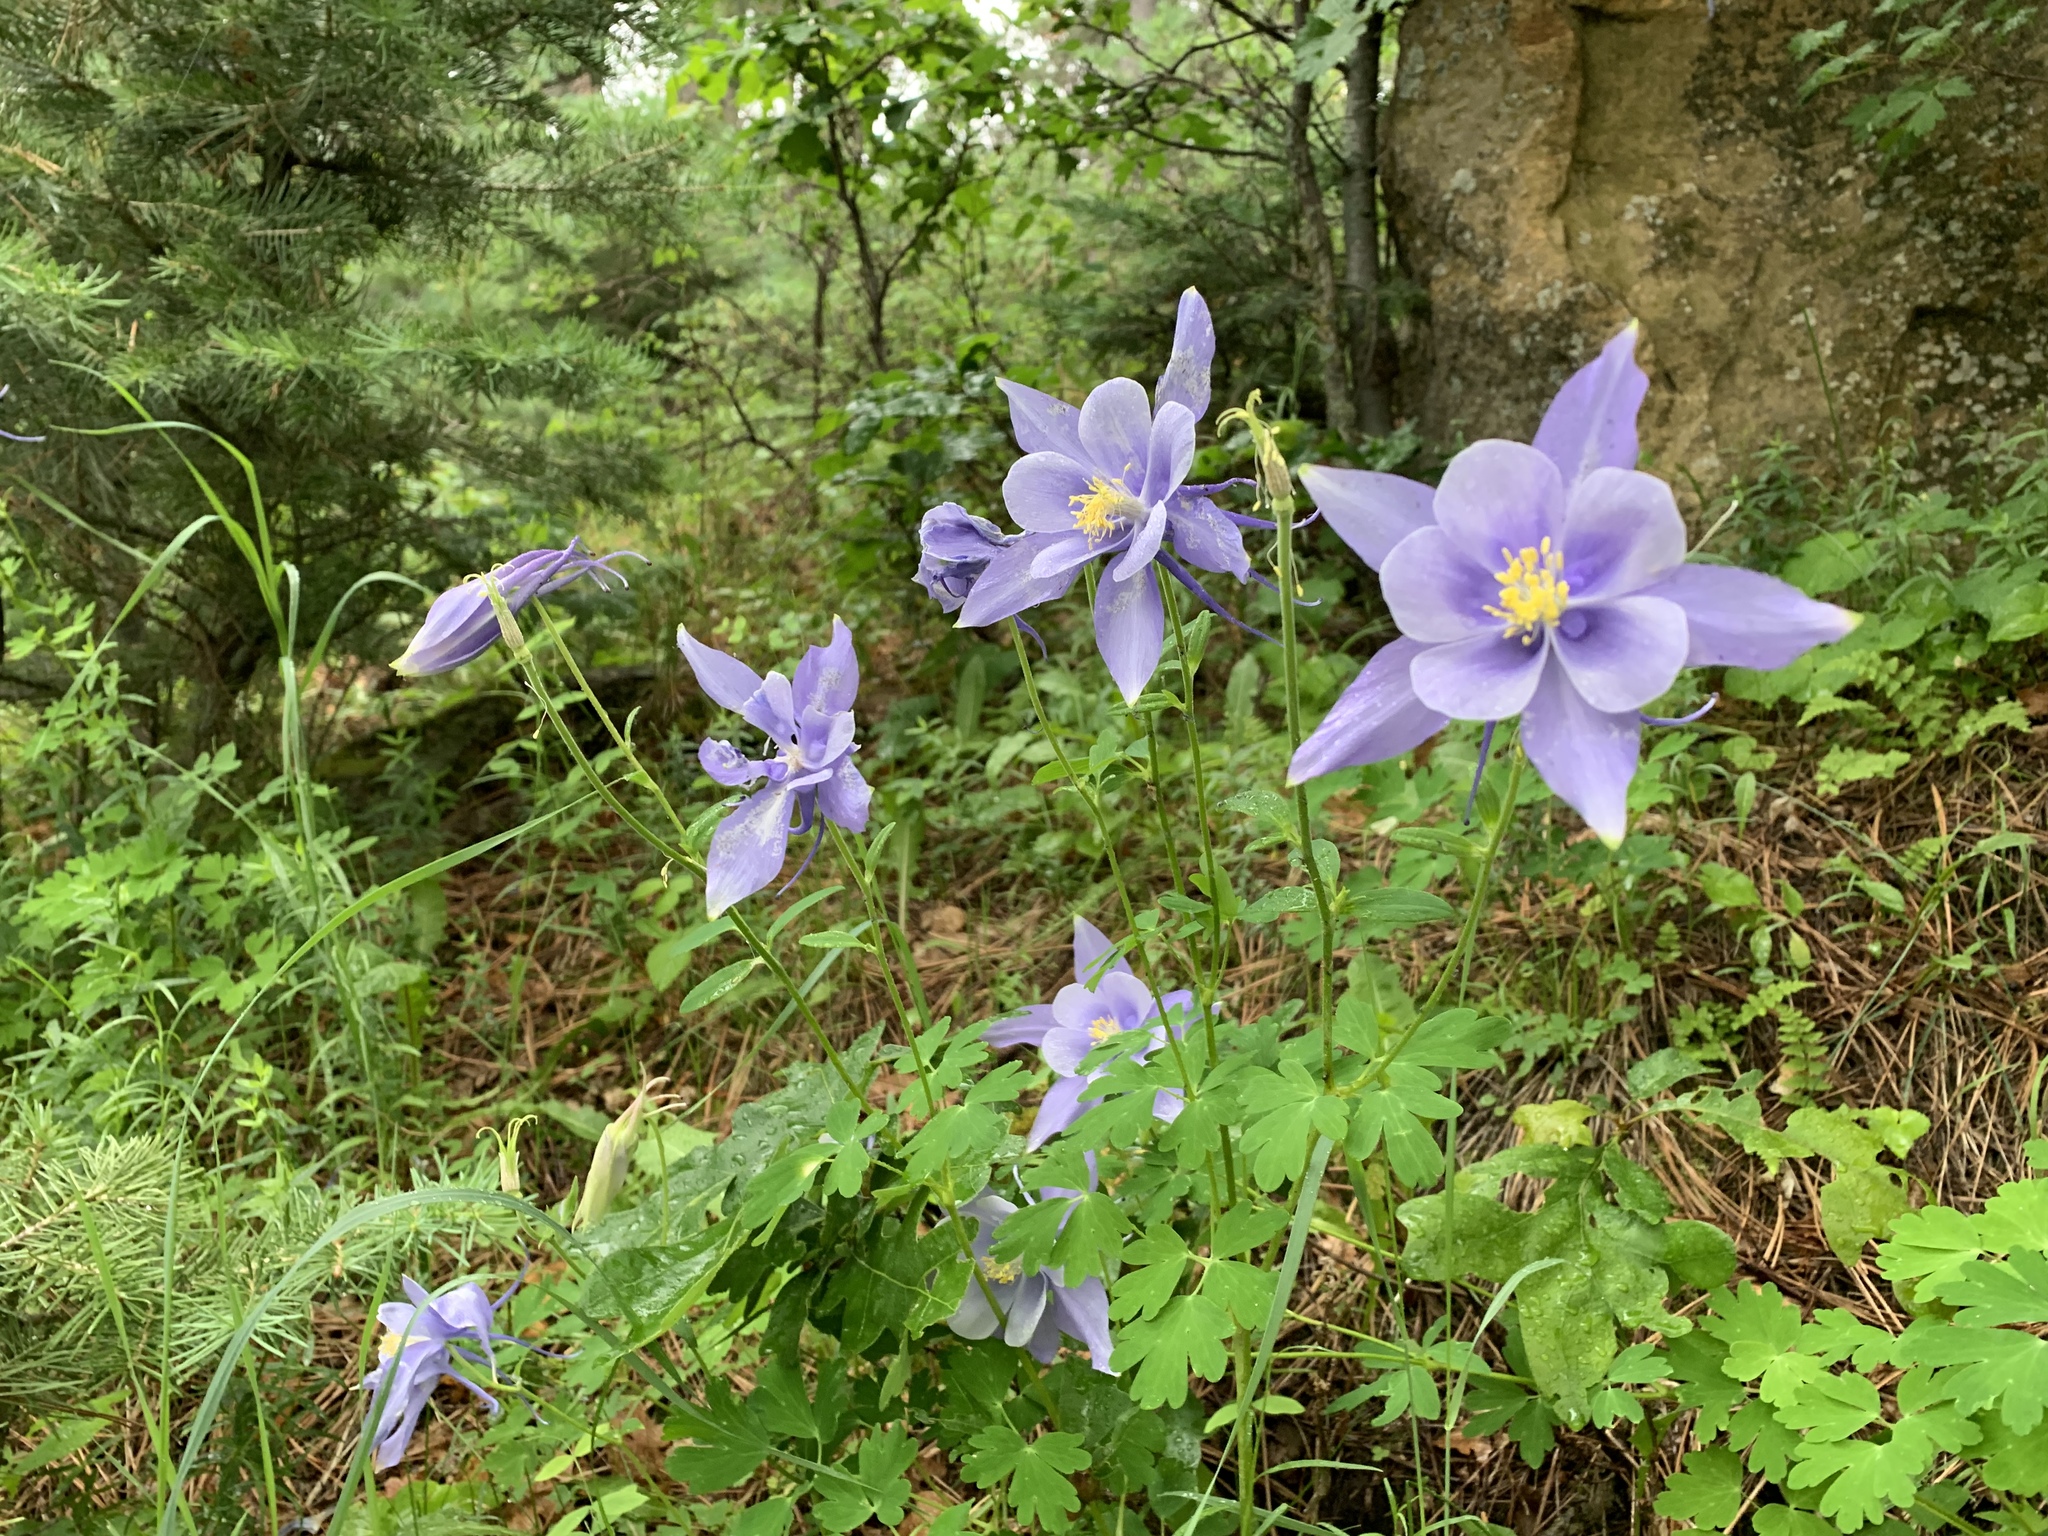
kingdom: Plantae
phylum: Tracheophyta
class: Magnoliopsida
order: Ranunculales
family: Ranunculaceae
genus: Aquilegia
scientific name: Aquilegia coerulea
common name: Rocky mountain columbine
